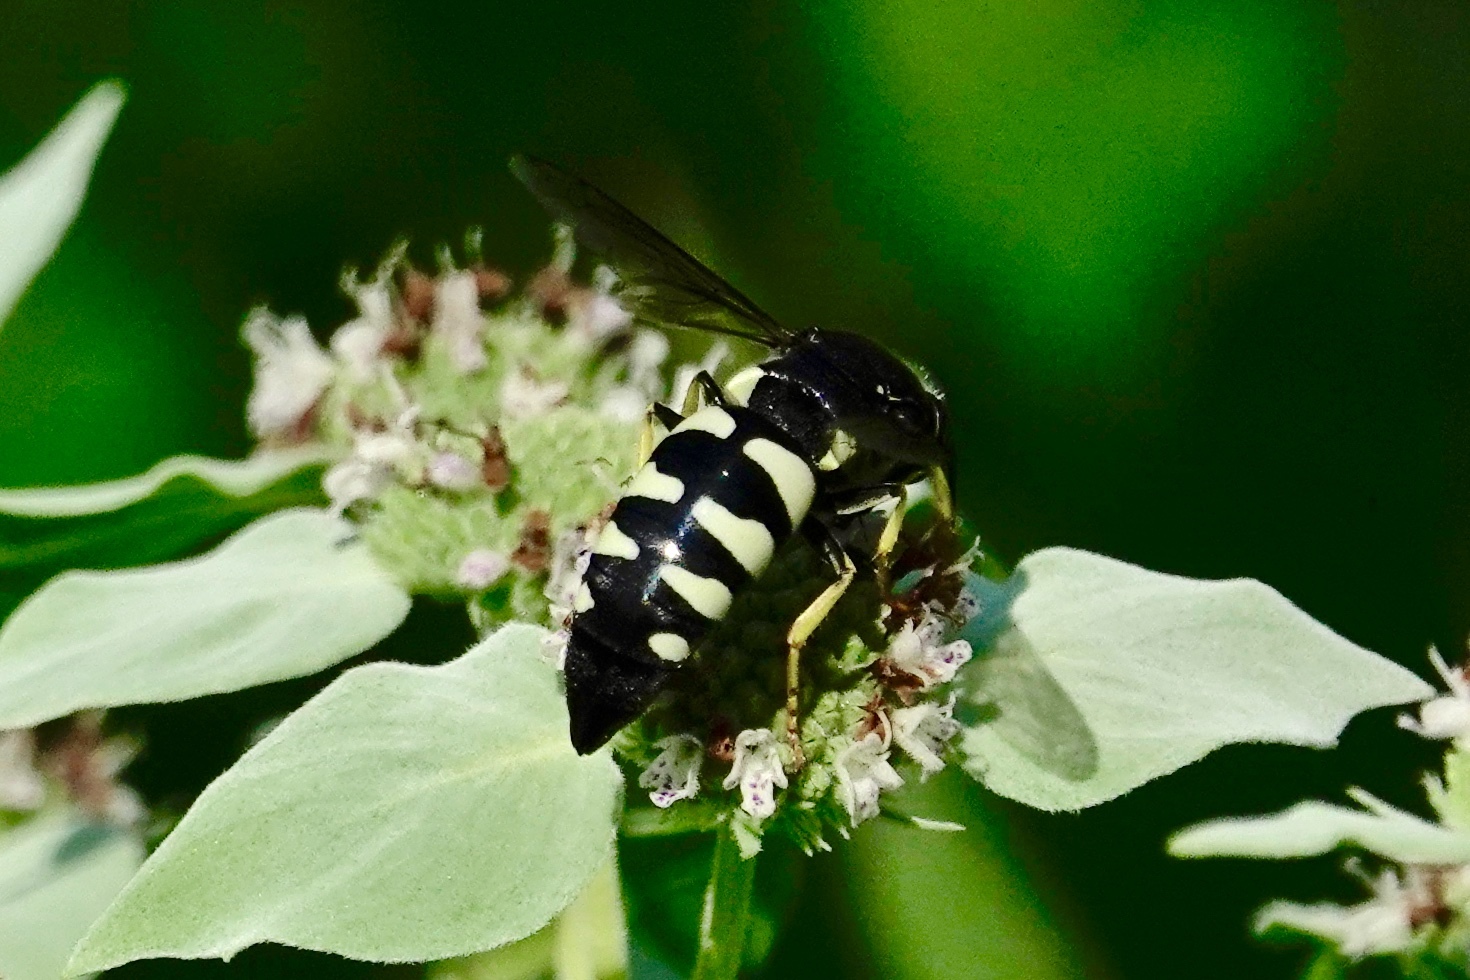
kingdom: Animalia
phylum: Arthropoda
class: Insecta
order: Hymenoptera
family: Crabronidae
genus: Bicyrtes
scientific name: Bicyrtes quadrifasciatus
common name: Four-banded stink bug hunter wasp
